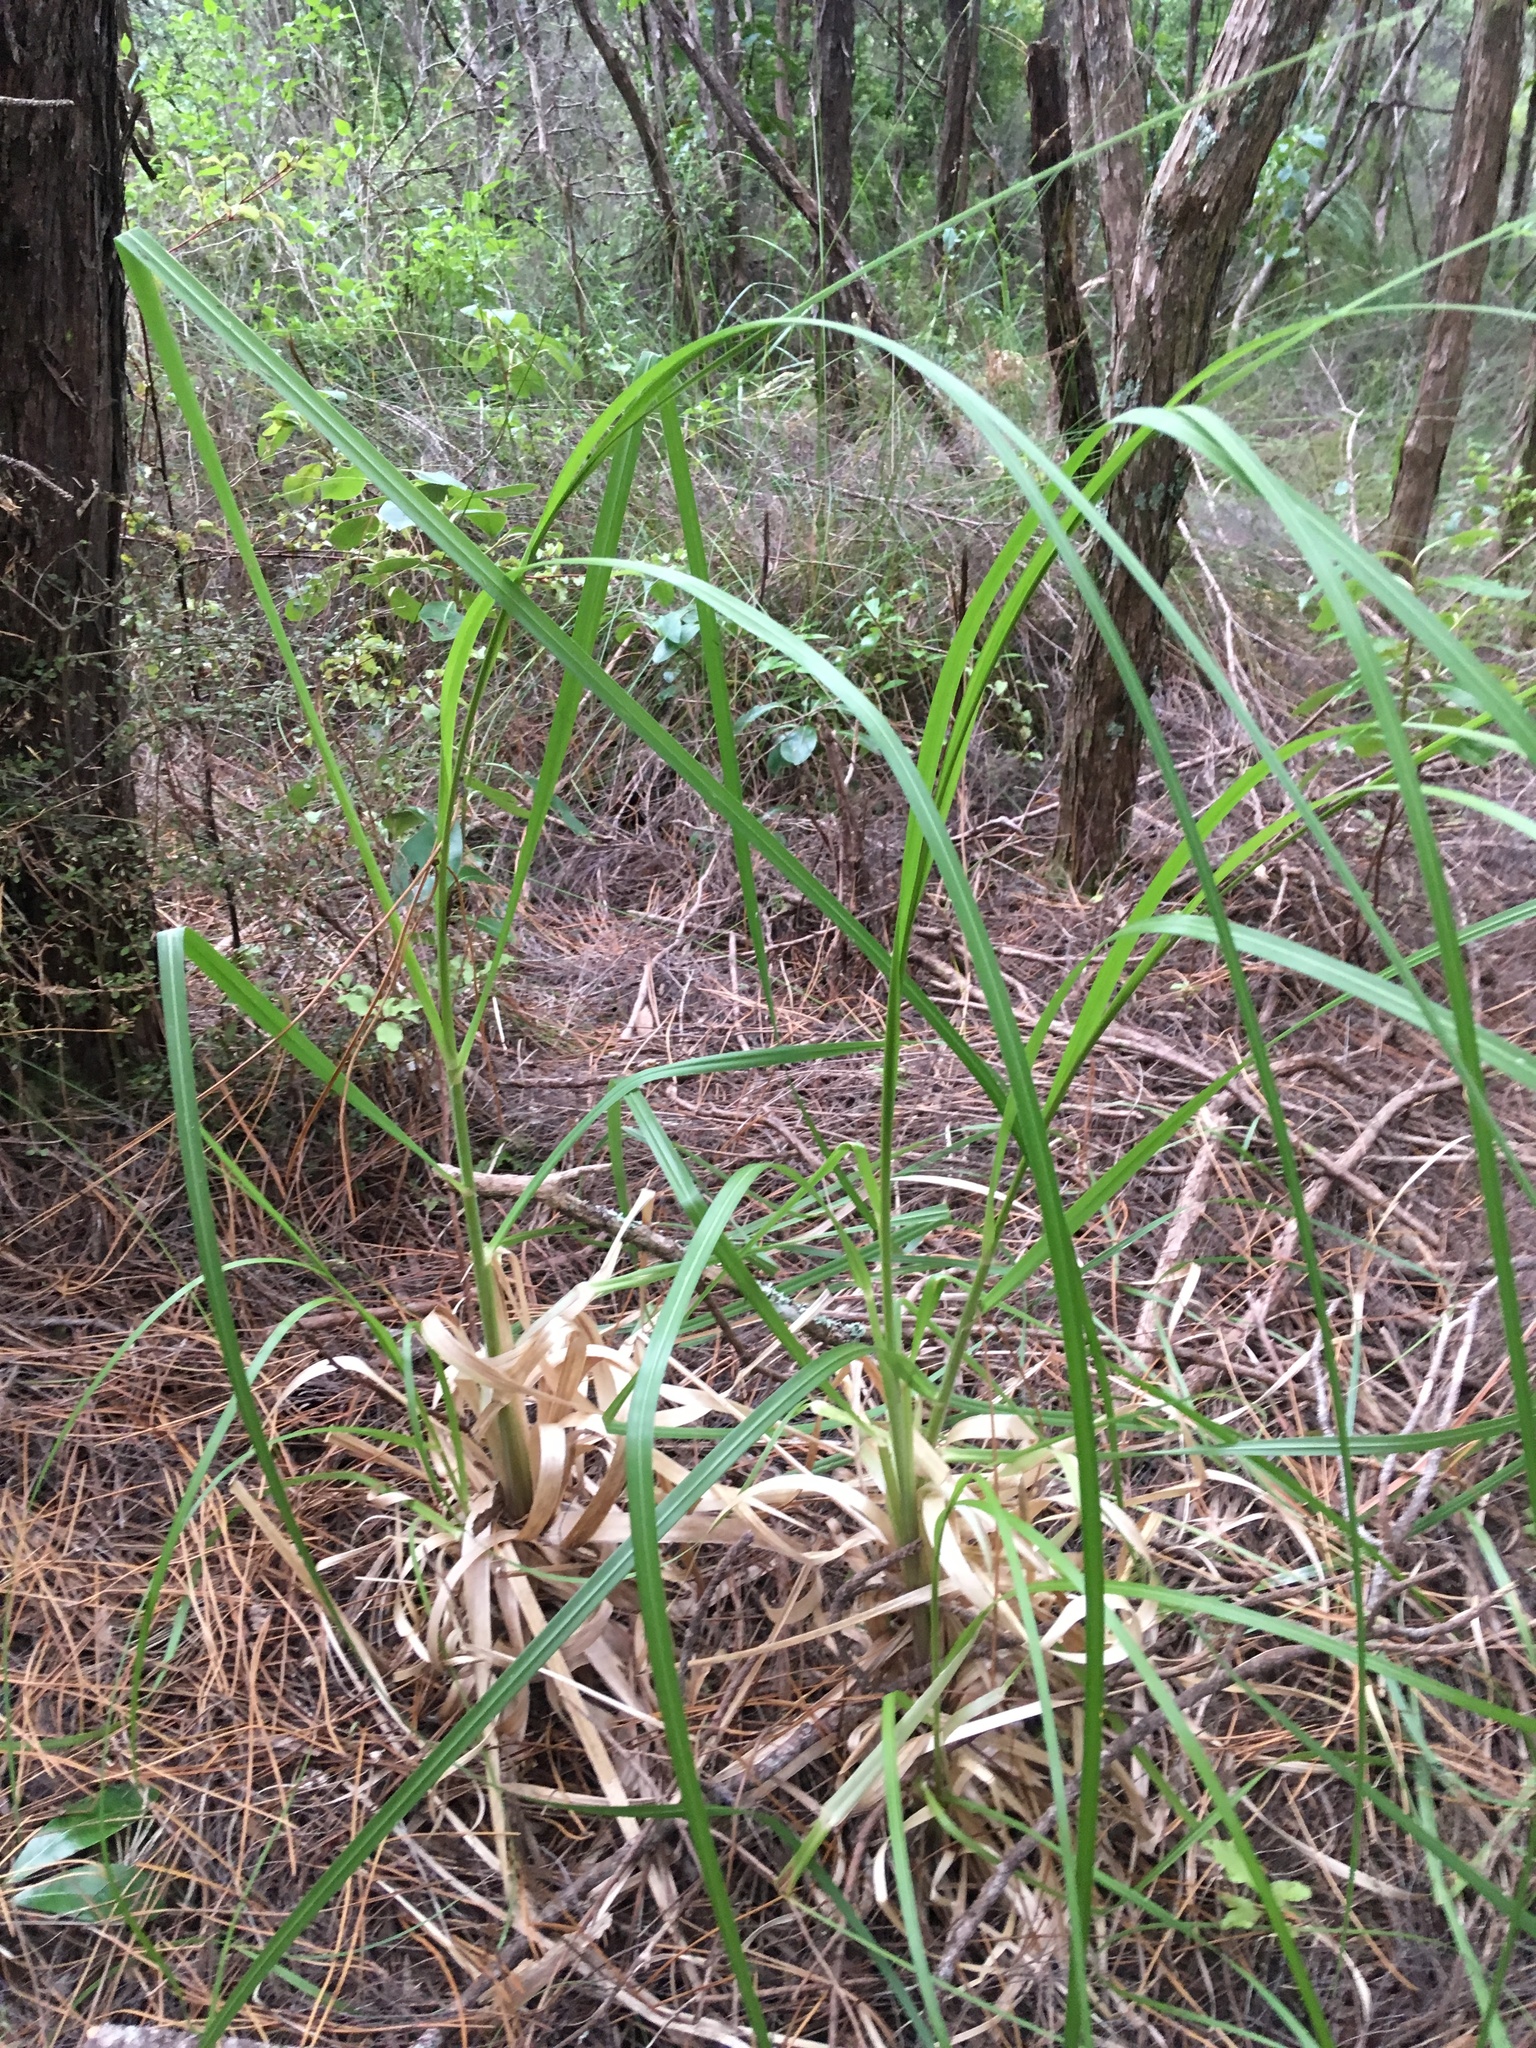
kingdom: Plantae
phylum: Tracheophyta
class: Liliopsida
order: Poales
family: Poaceae
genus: Cortaderia
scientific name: Cortaderia selloana
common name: Uruguayan pampas grass
